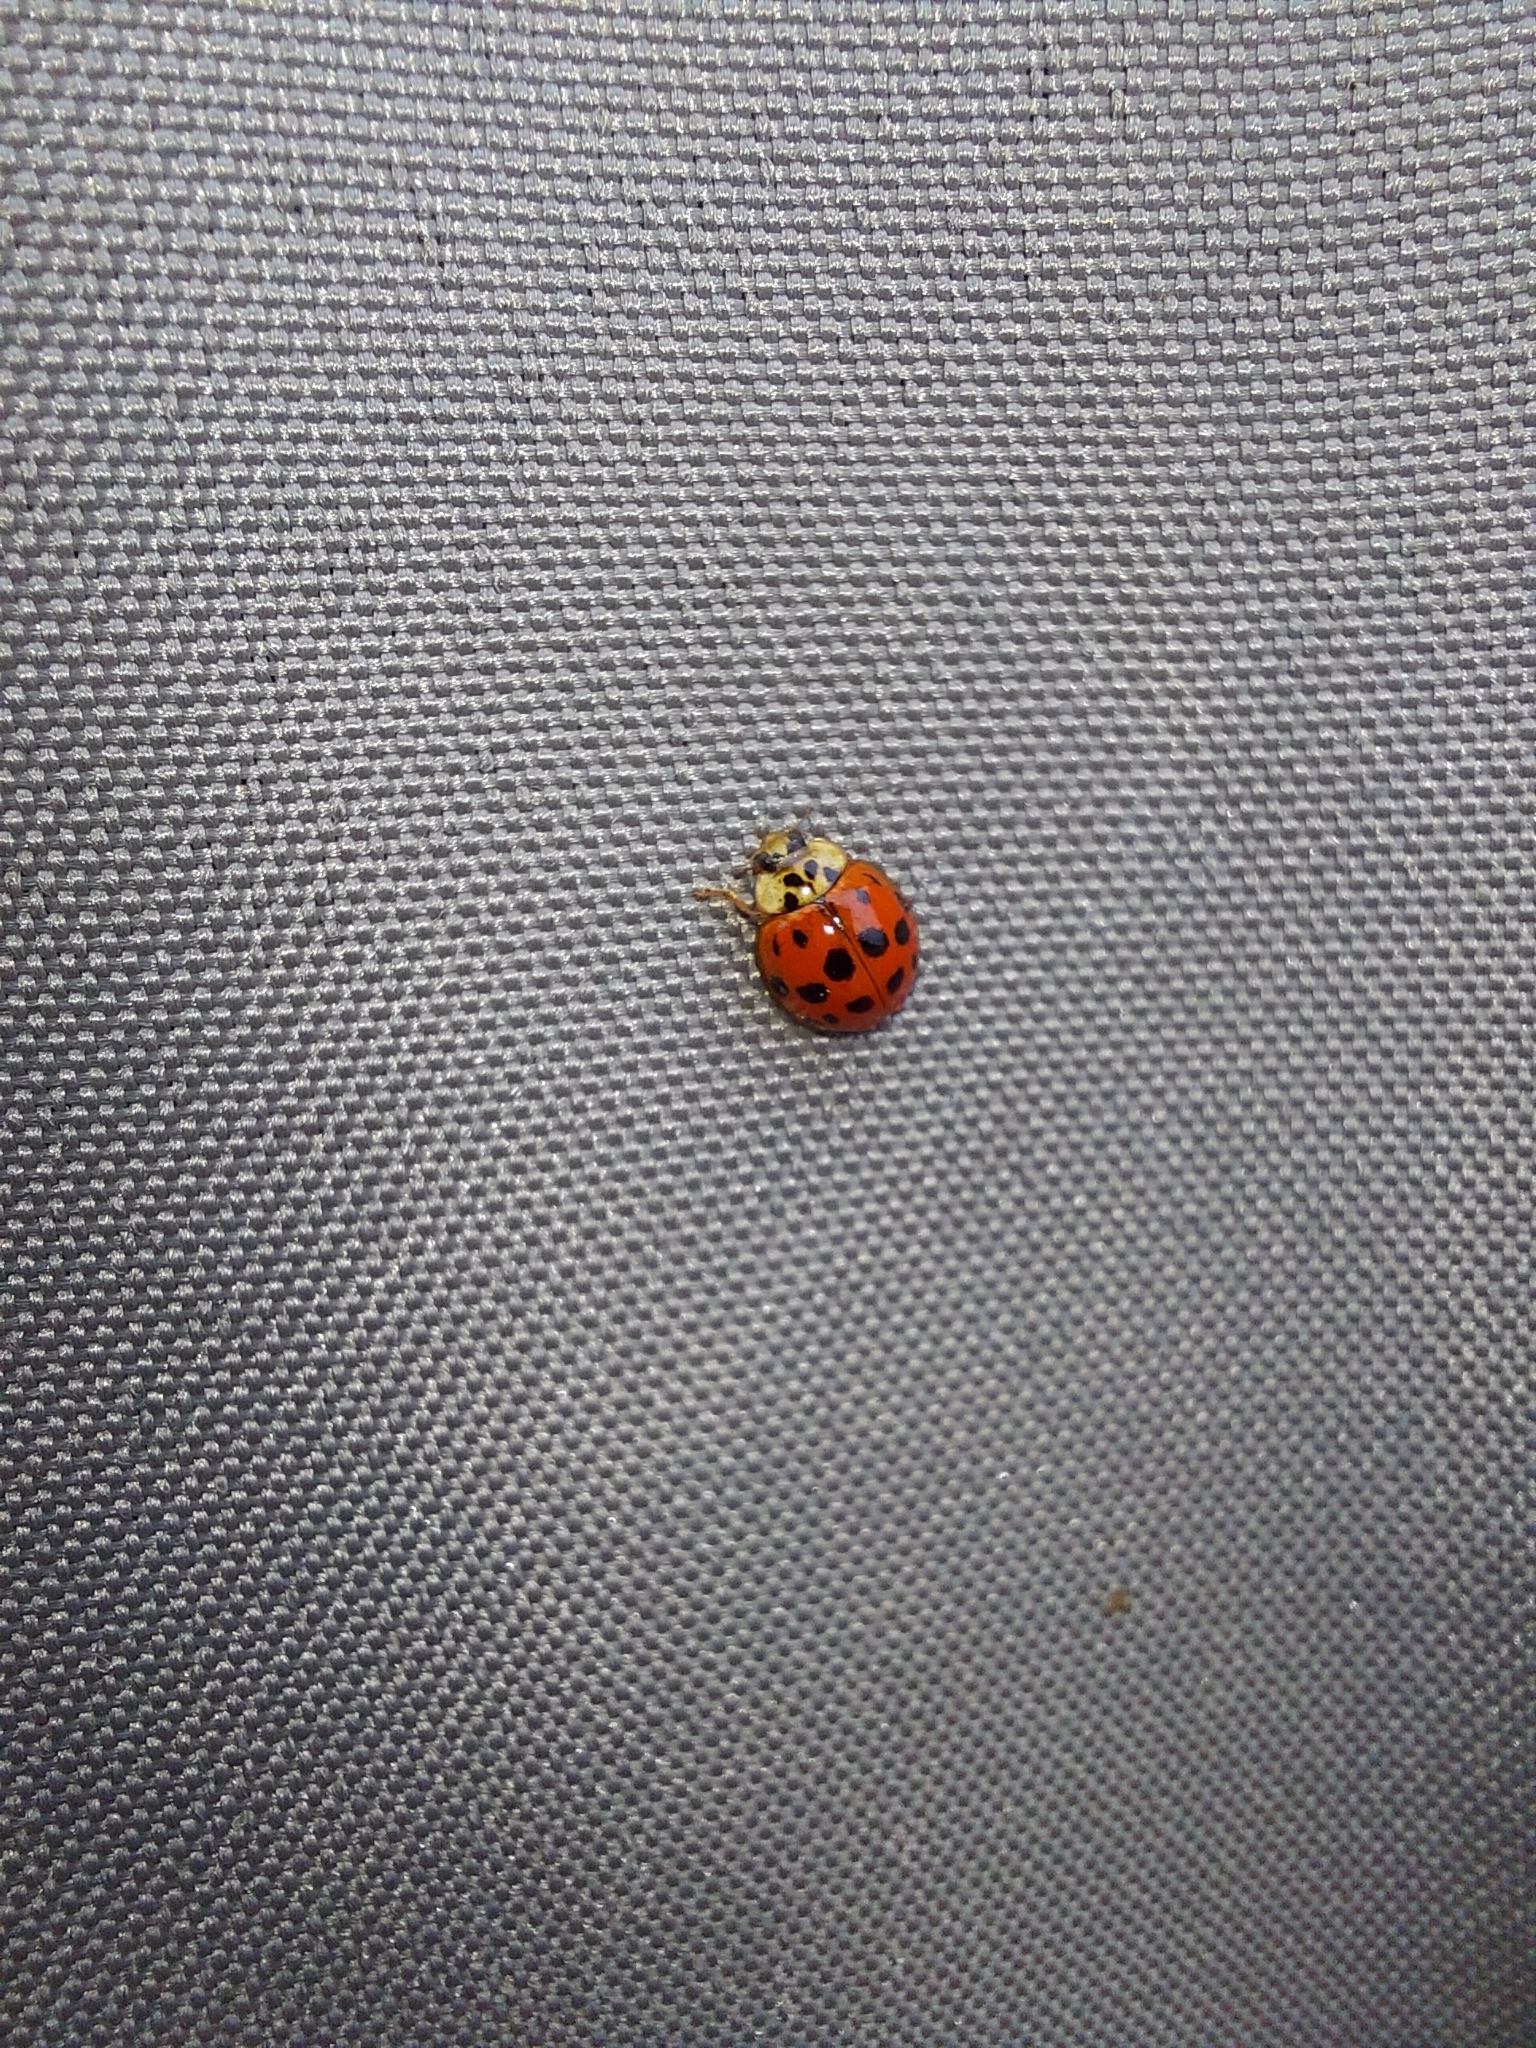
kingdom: Animalia
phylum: Arthropoda
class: Insecta
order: Coleoptera
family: Coccinellidae
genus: Harmonia
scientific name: Harmonia axyridis
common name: Harlequin ladybird
